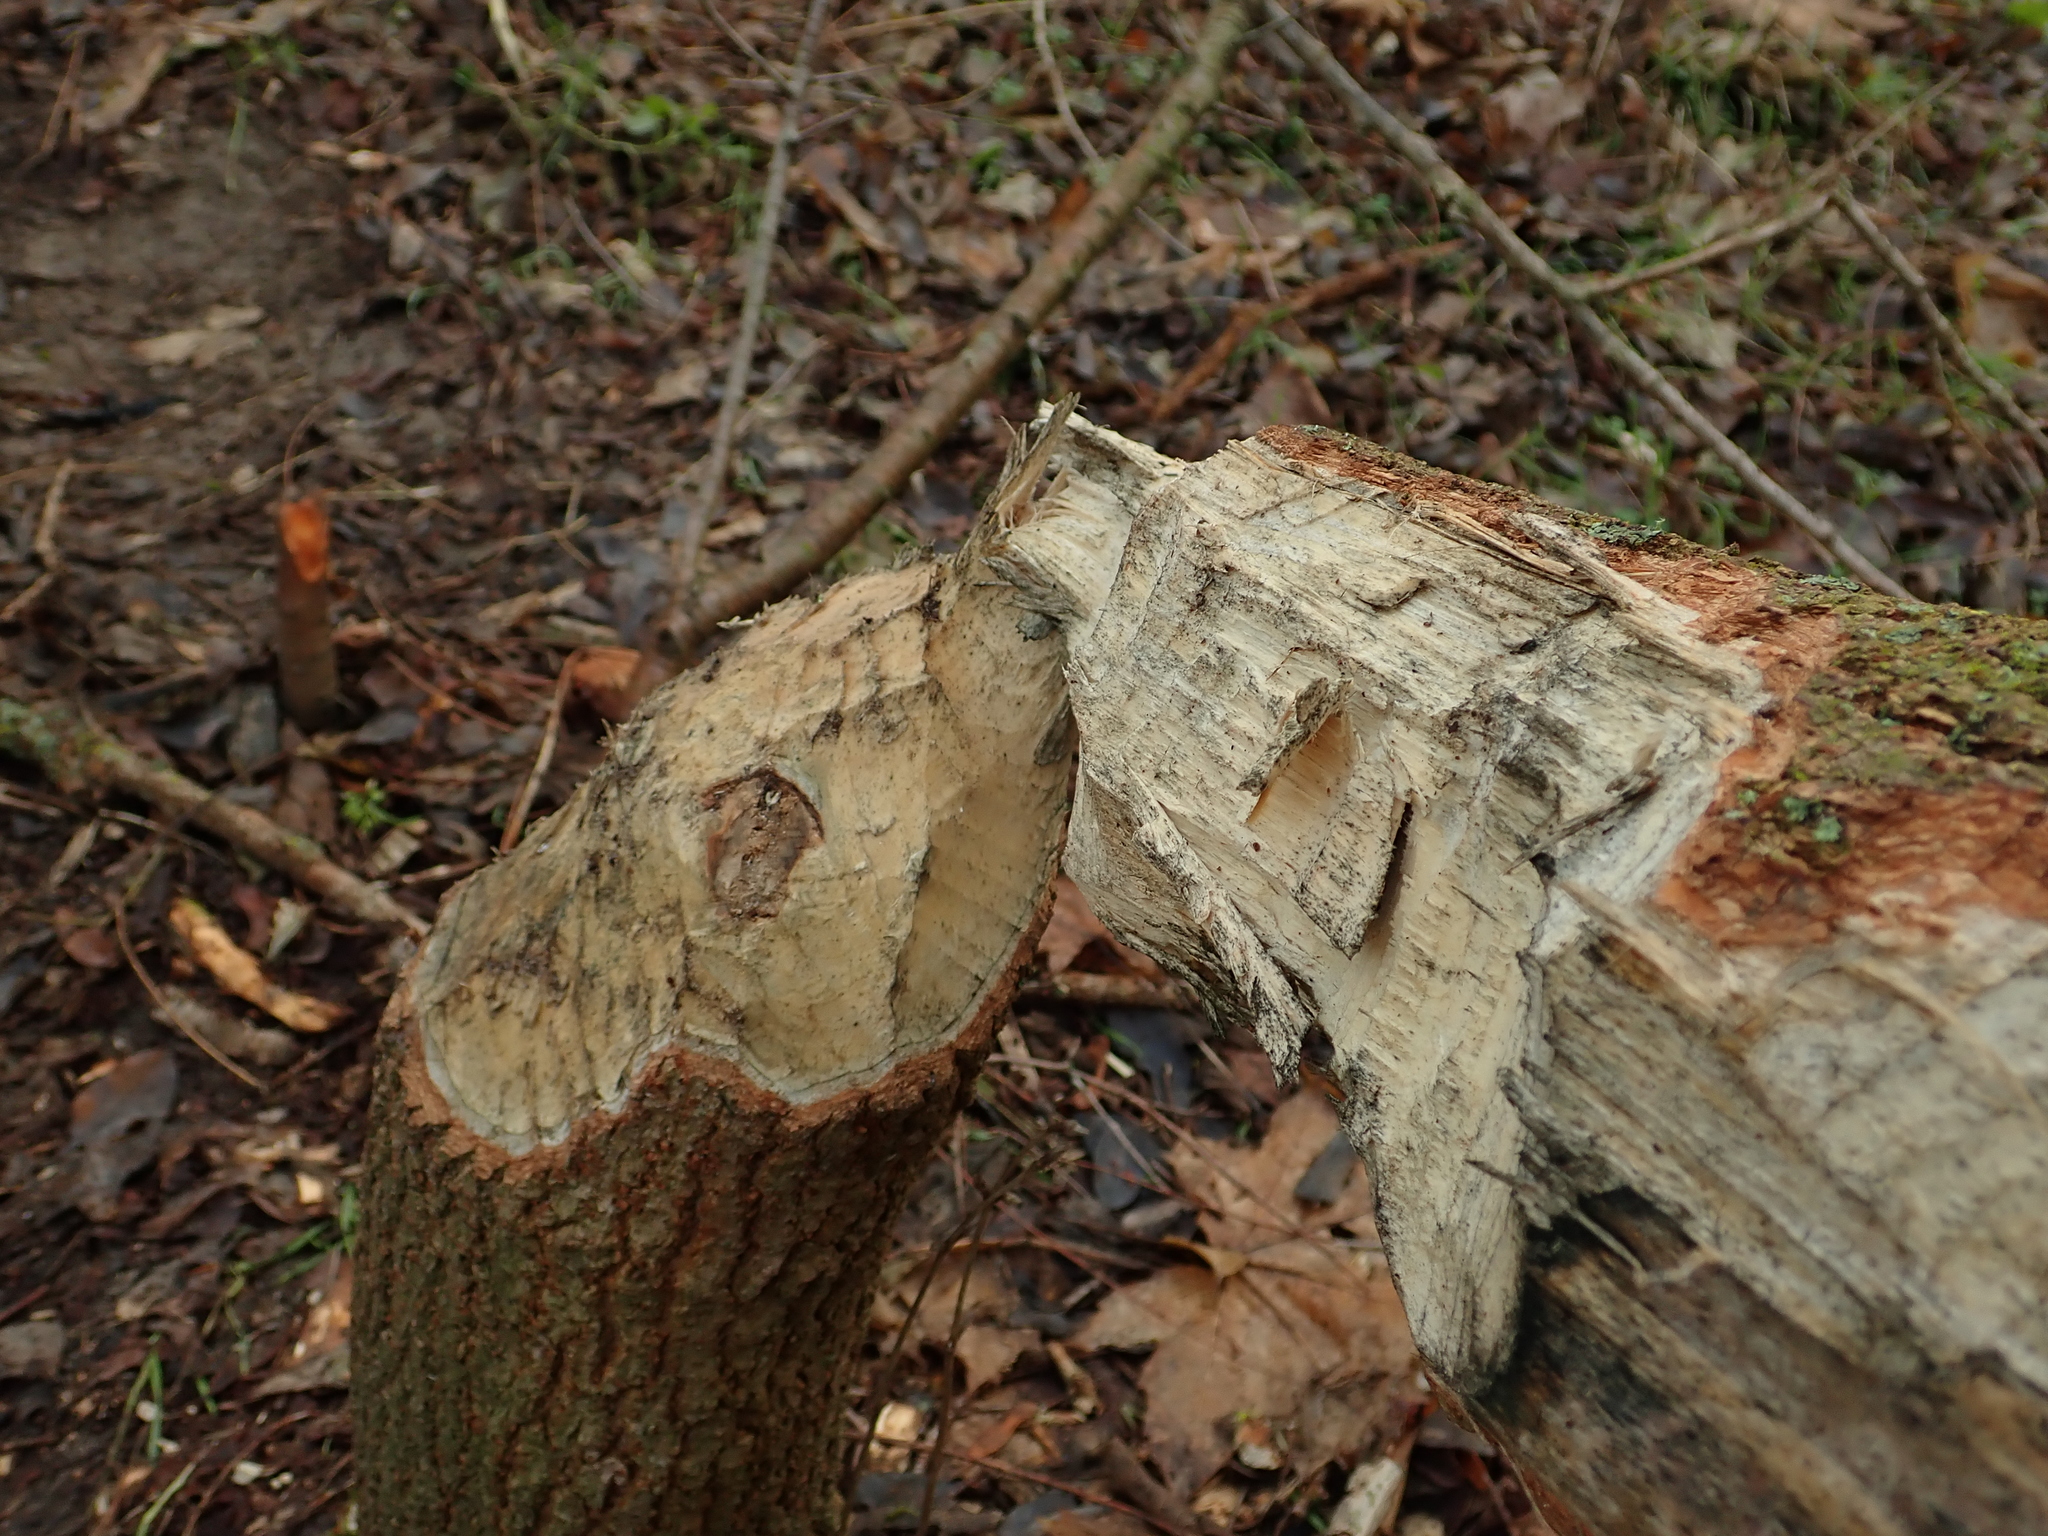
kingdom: Animalia
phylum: Chordata
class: Mammalia
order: Rodentia
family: Castoridae
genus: Castor
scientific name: Castor fiber
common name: Eurasian beaver
